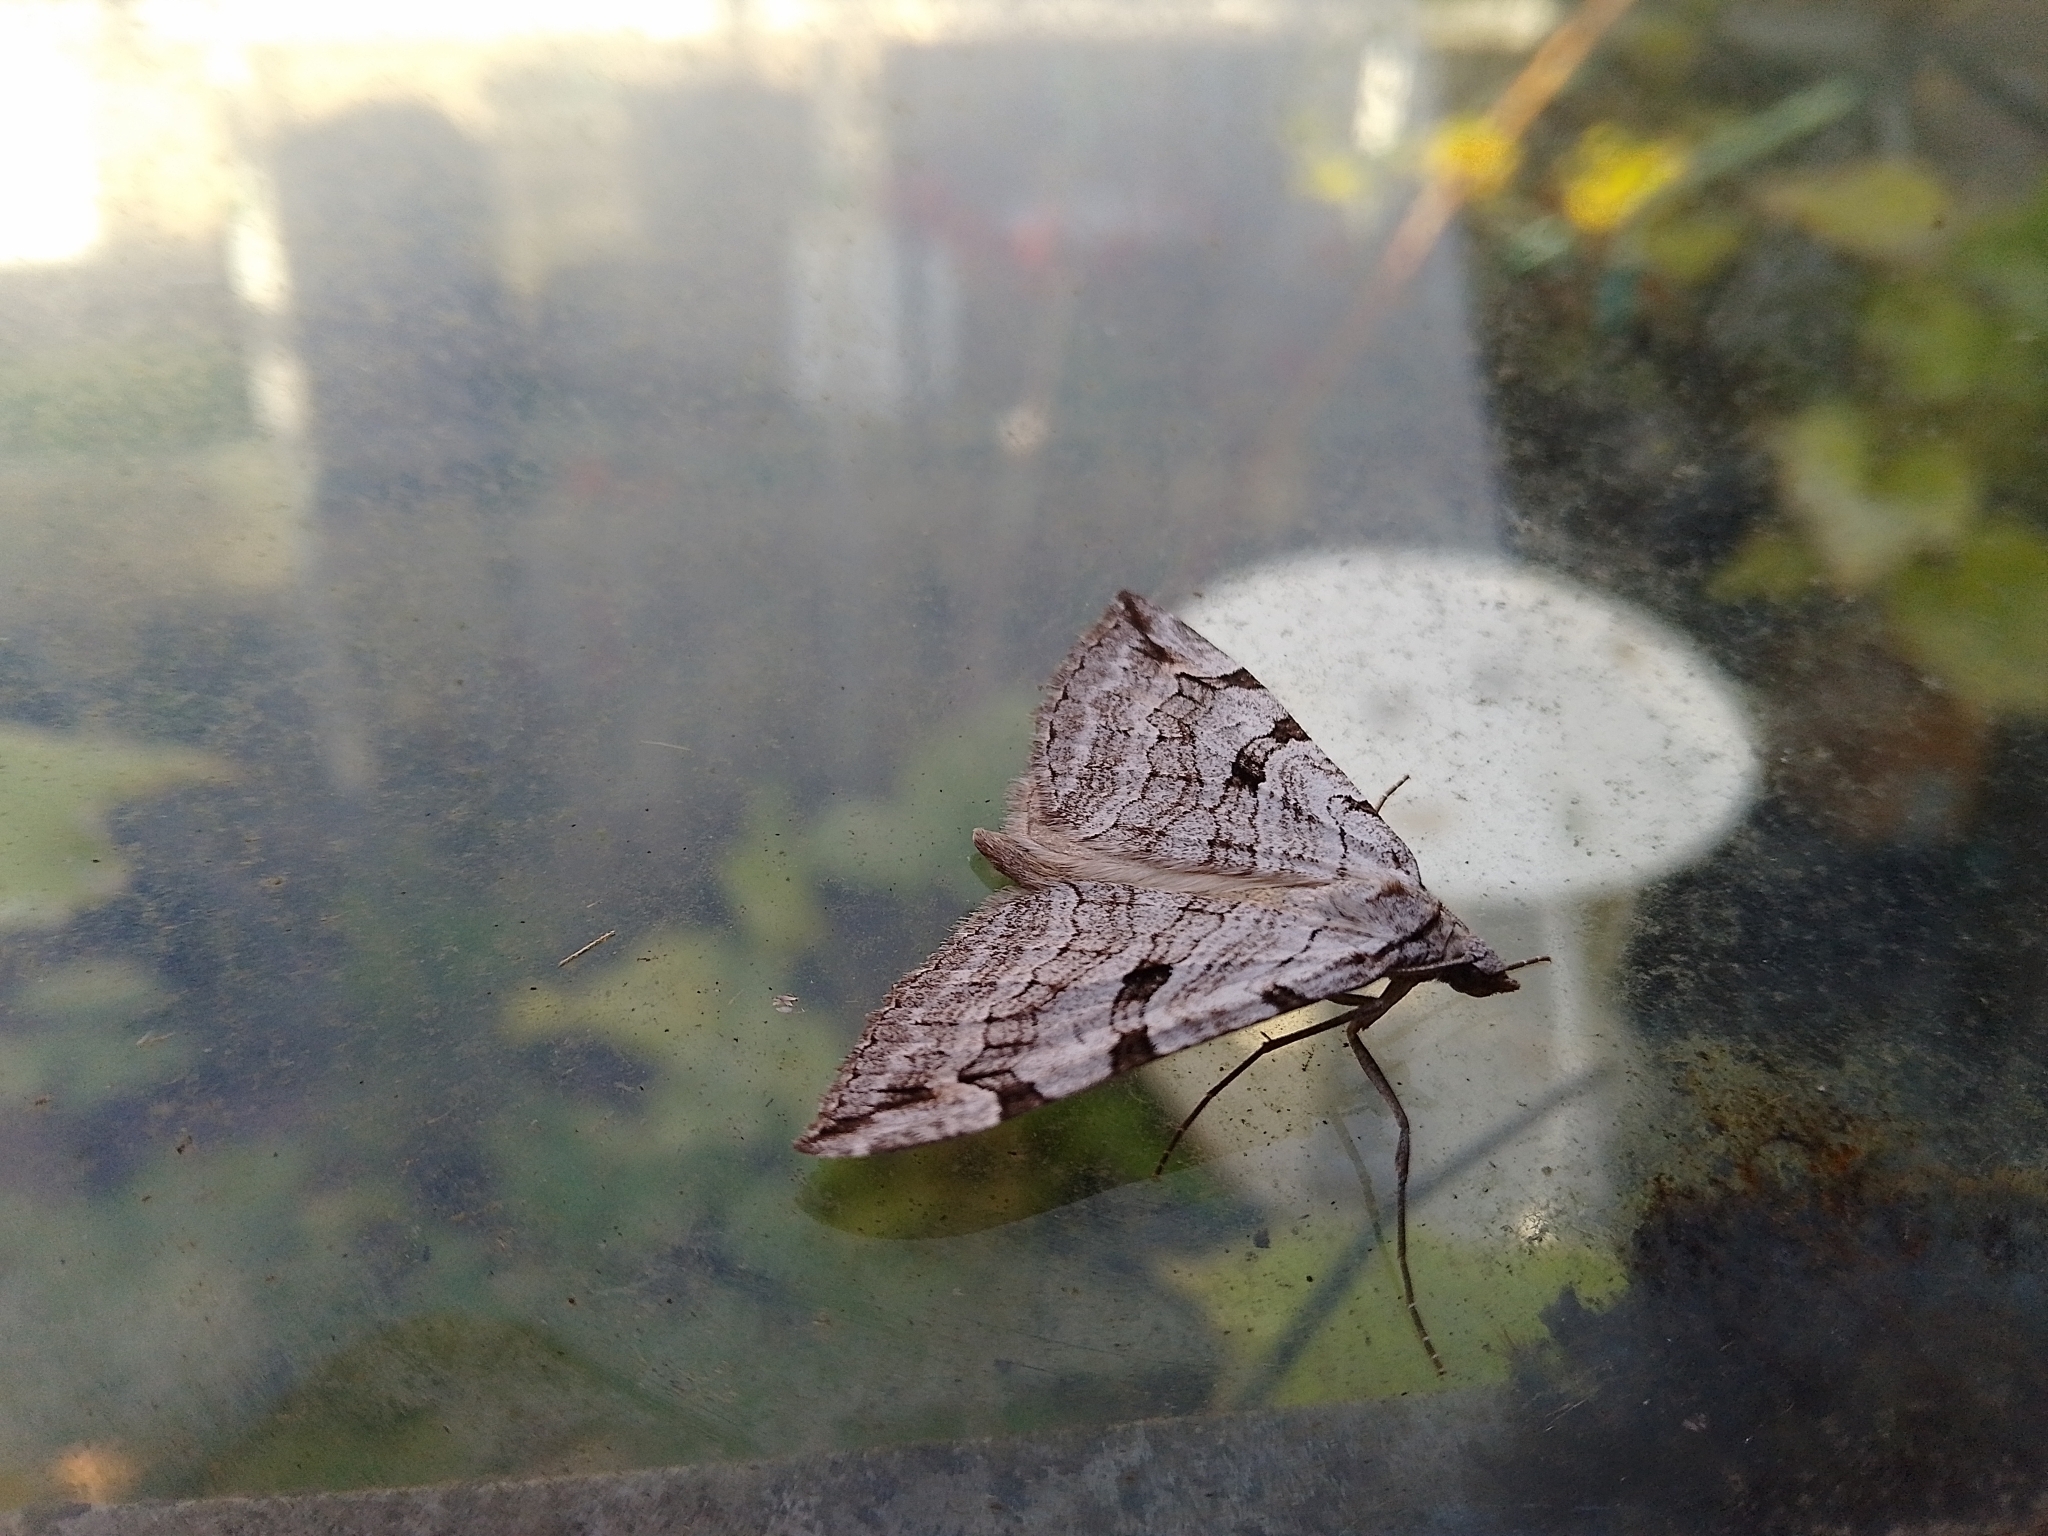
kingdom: Animalia
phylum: Arthropoda
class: Insecta
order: Lepidoptera
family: Geometridae
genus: Aplocera
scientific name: Aplocera plagiata
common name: Treble-bar
